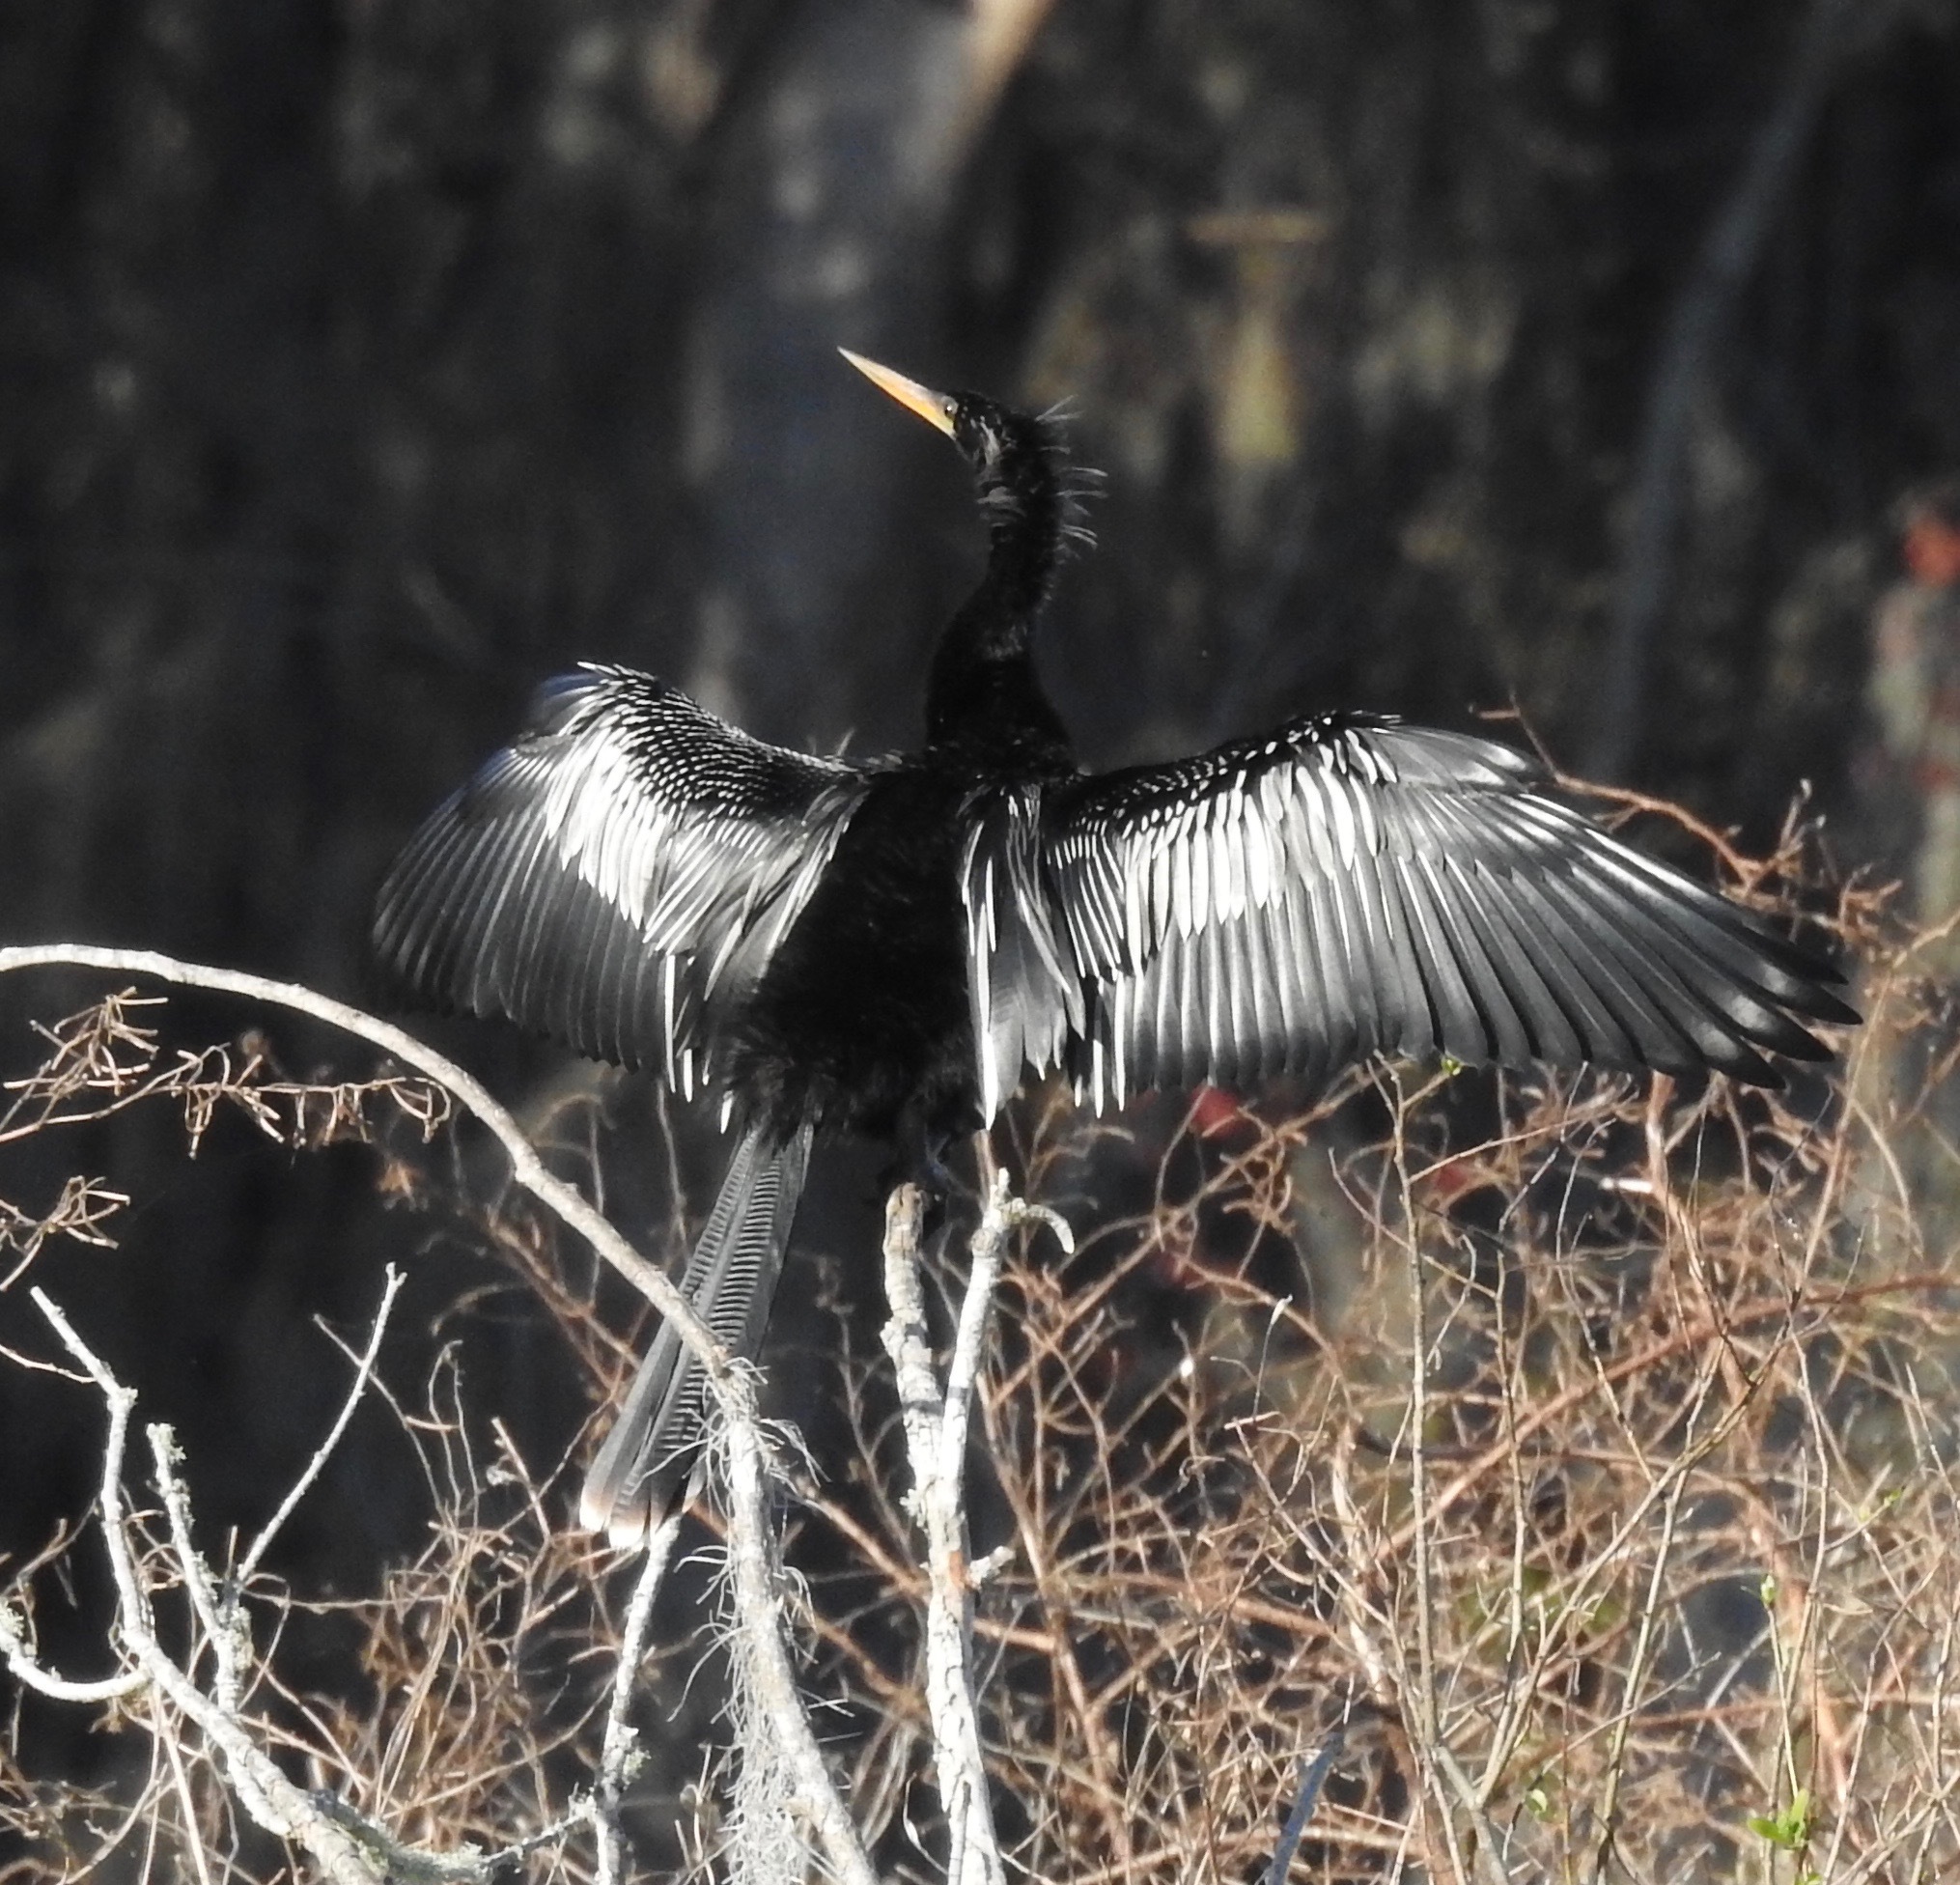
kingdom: Animalia
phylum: Chordata
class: Aves
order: Suliformes
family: Anhingidae
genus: Anhinga
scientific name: Anhinga anhinga
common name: Anhinga
